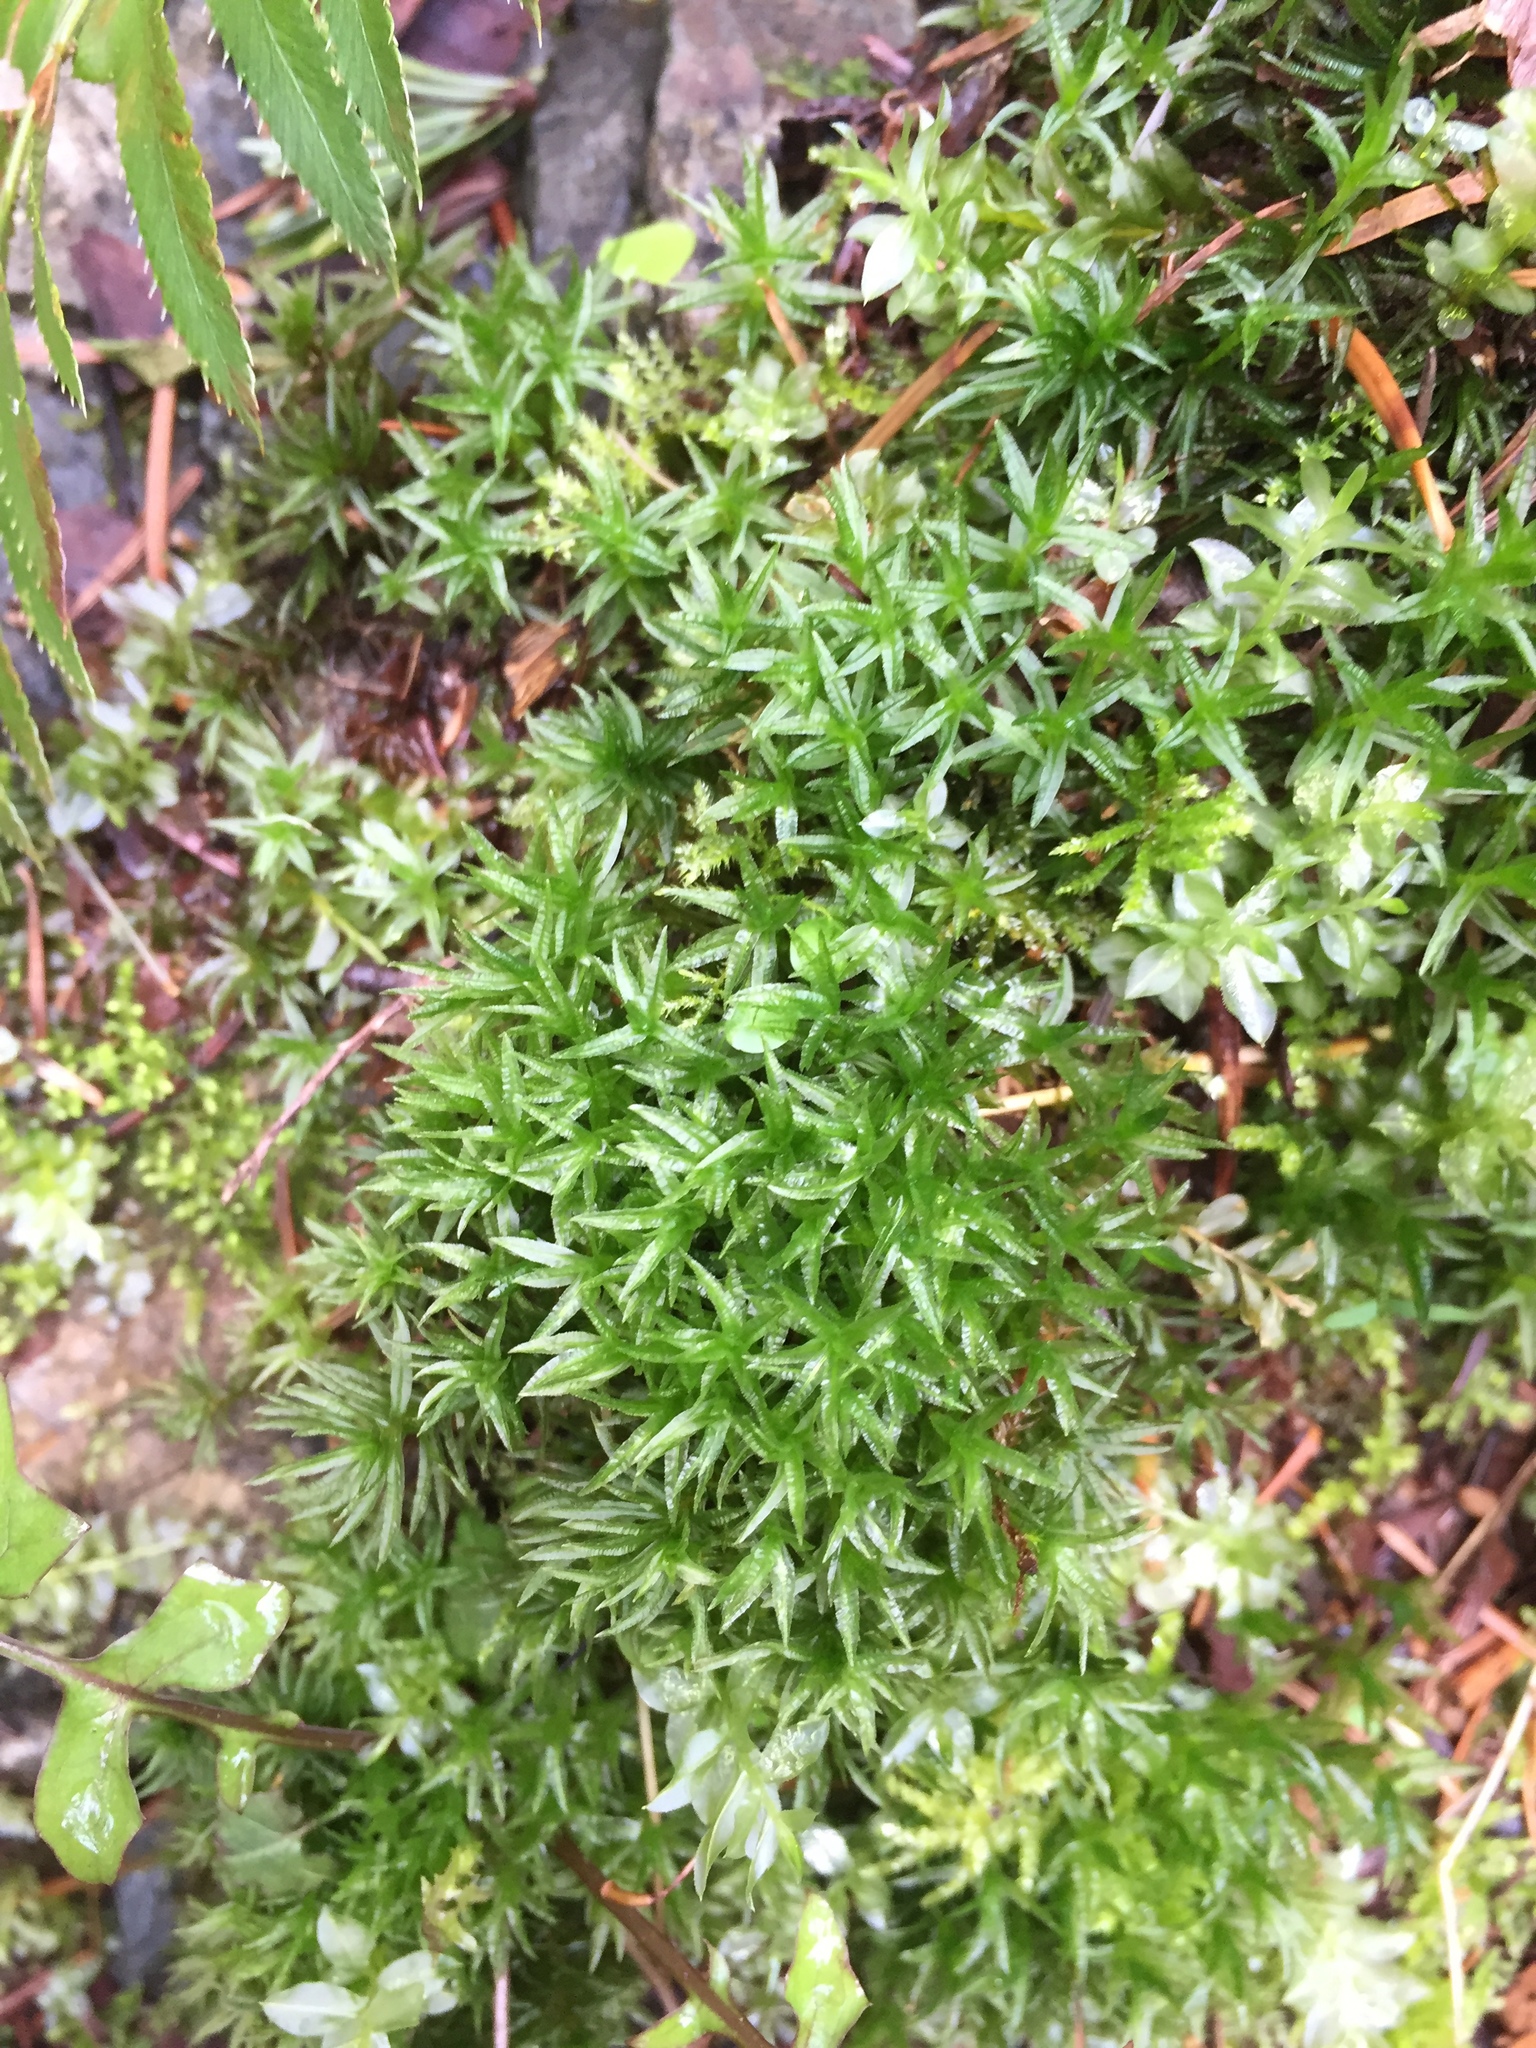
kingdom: Plantae
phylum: Bryophyta
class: Polytrichopsida
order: Polytrichales
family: Polytrichaceae
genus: Atrichum
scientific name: Atrichum undulatum
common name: Common smoothcap
